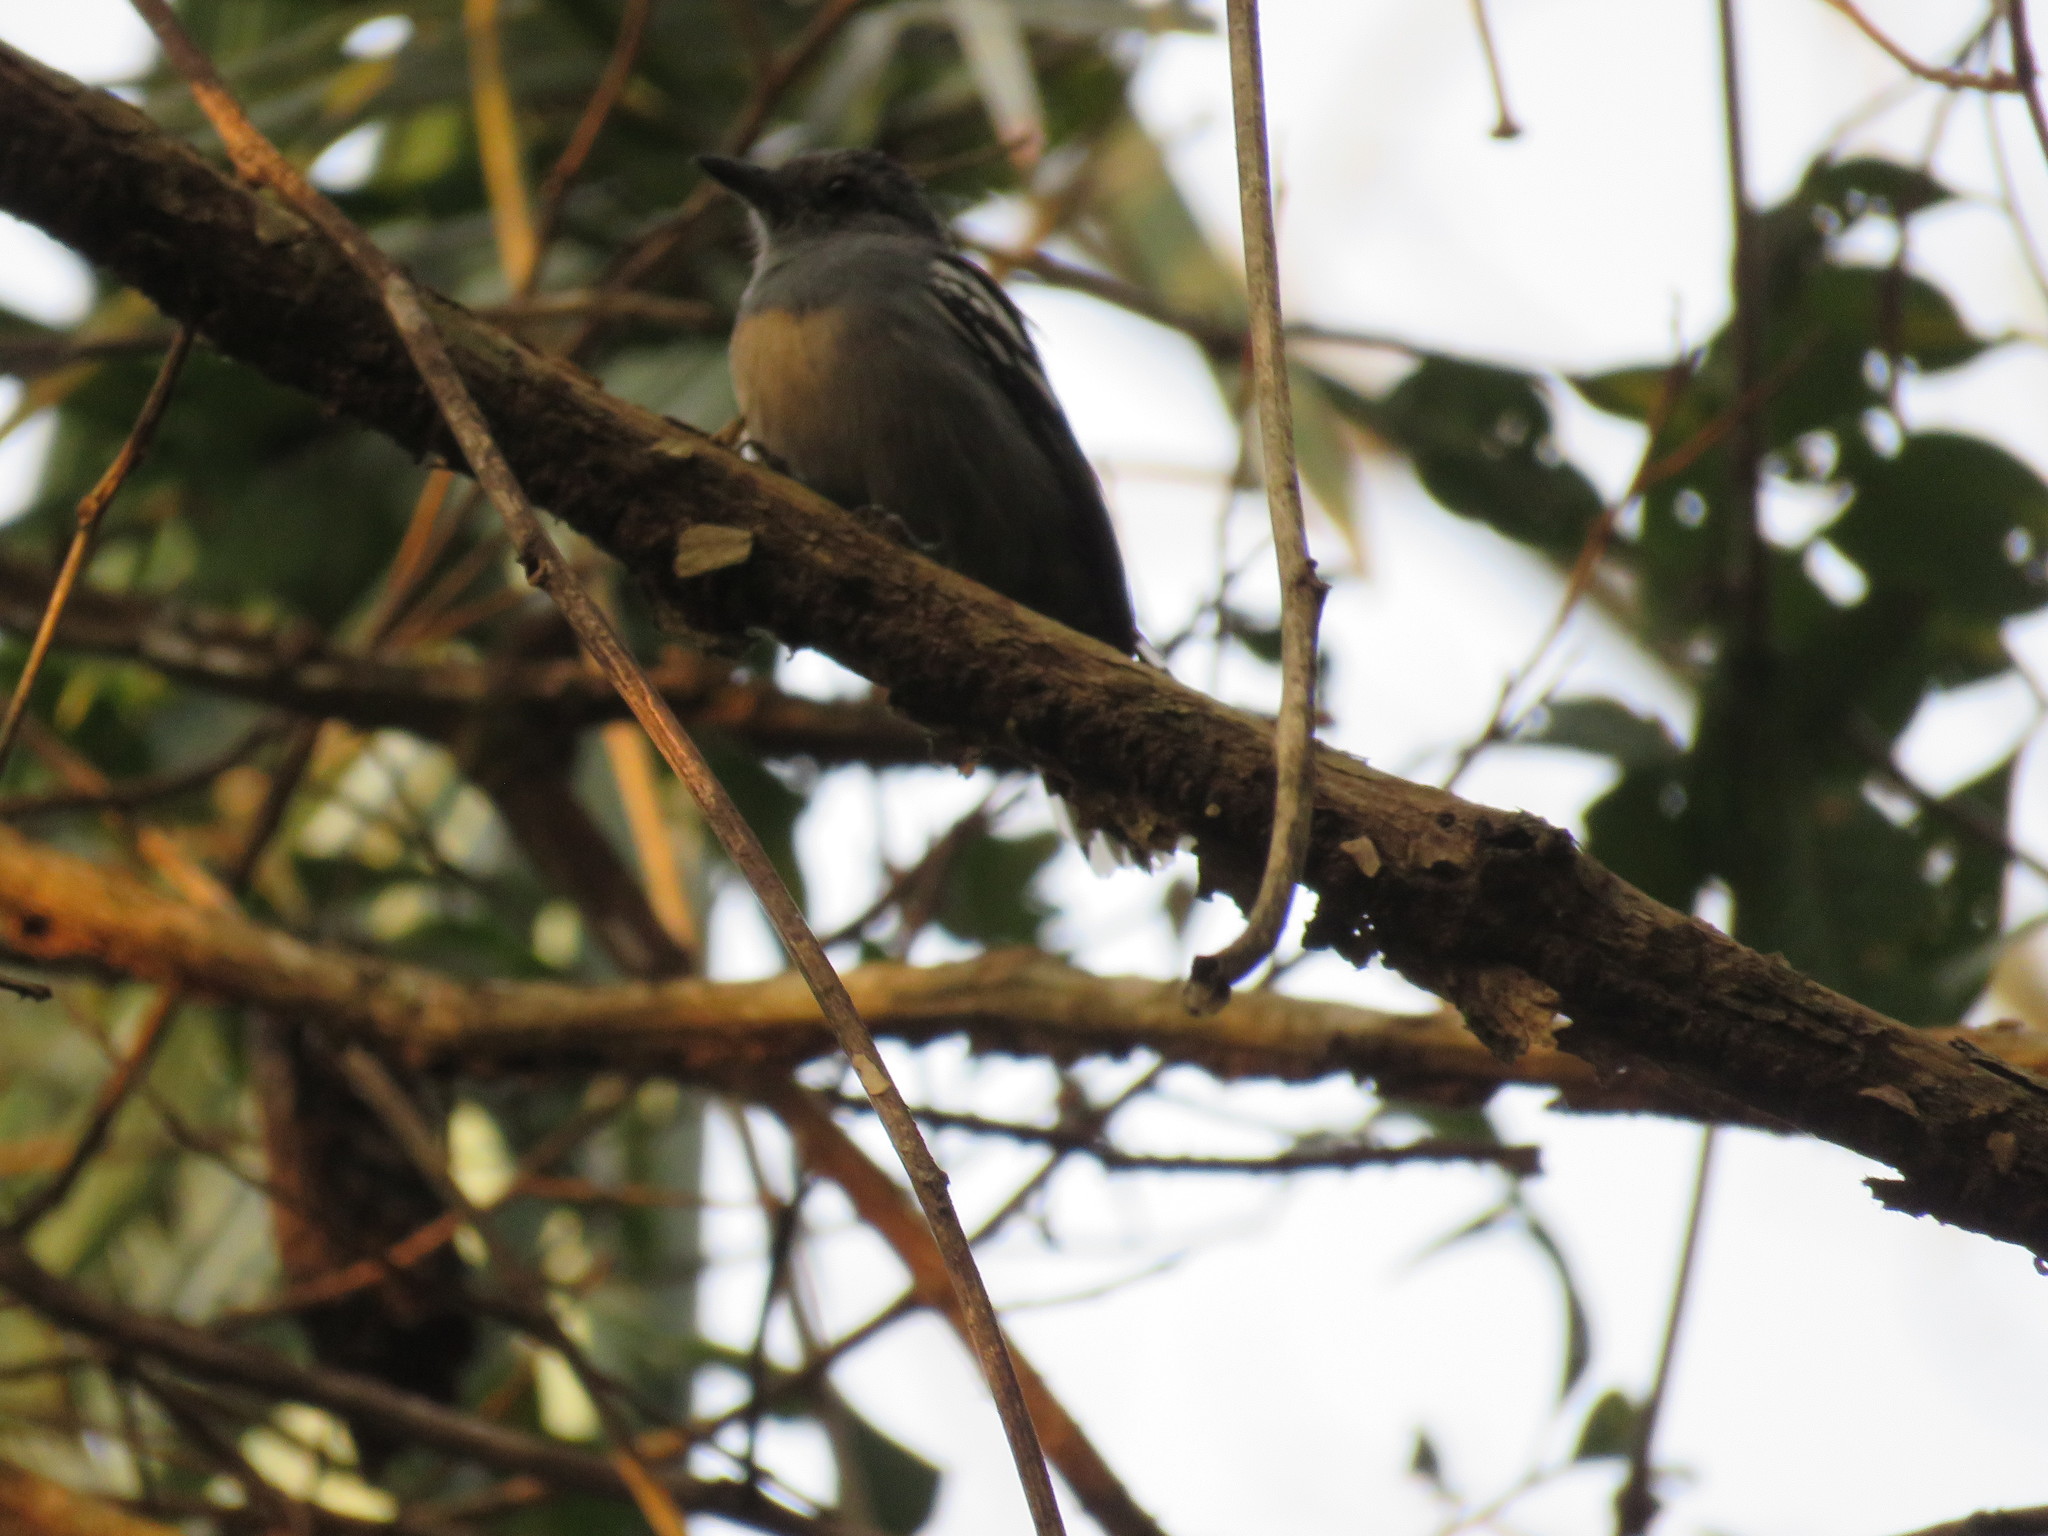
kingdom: Animalia
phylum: Chordata
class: Aves
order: Passeriformes
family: Thamnophilidae
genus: Thamnophilus
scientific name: Thamnophilus amazonicus
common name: Amazonian antshrike
